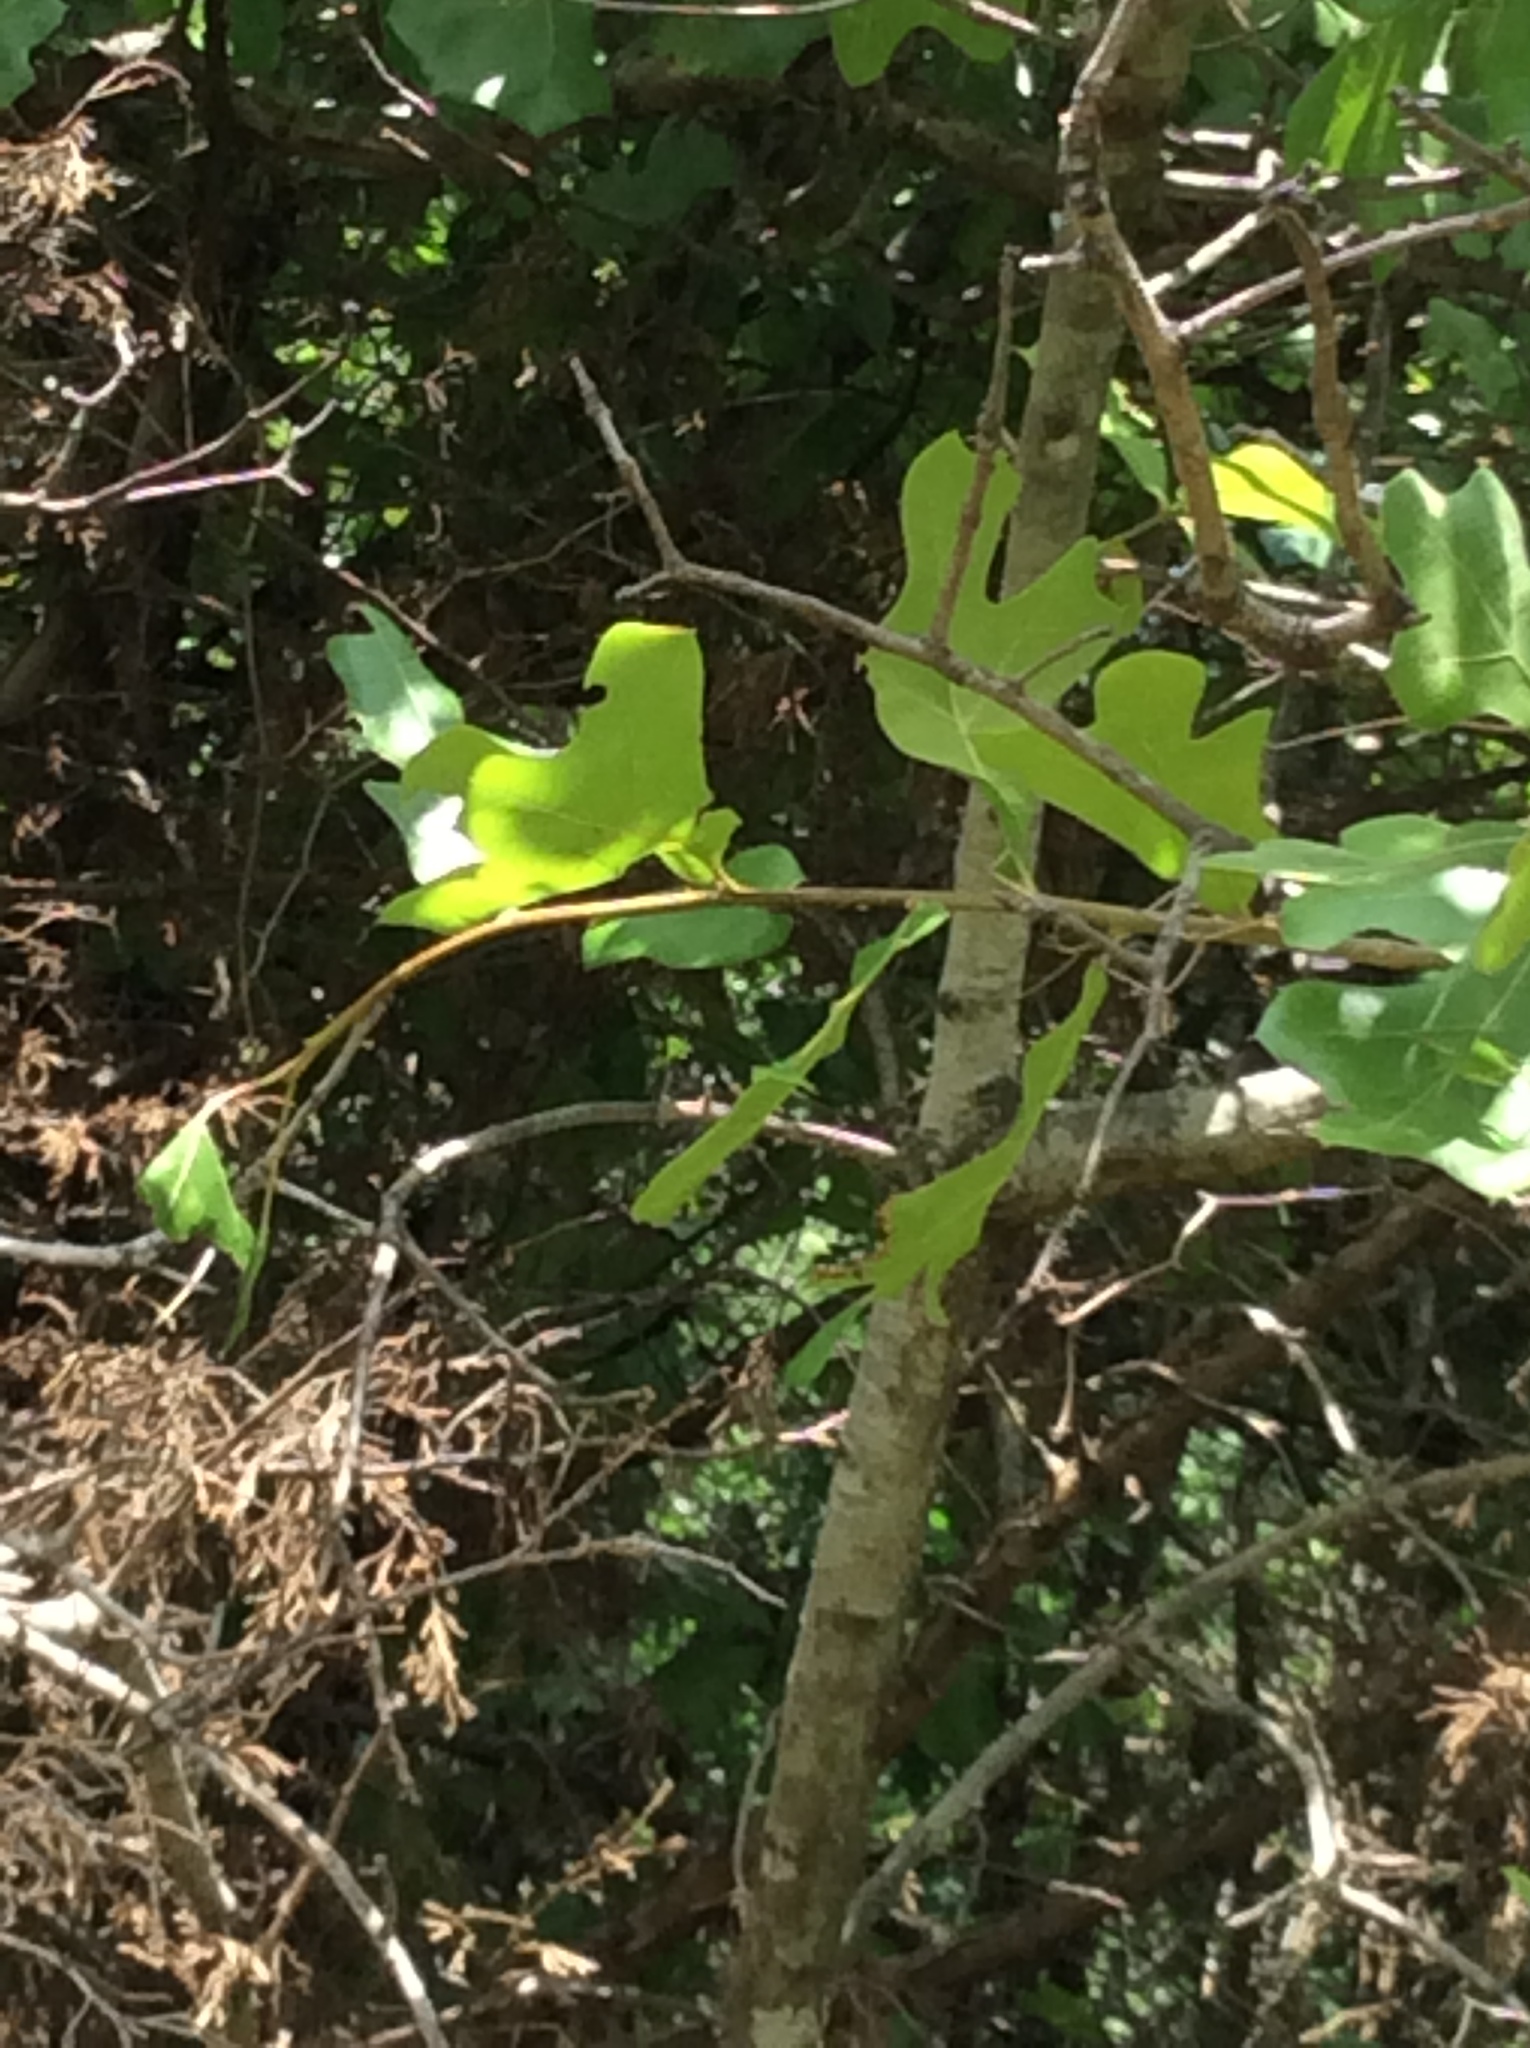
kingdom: Plantae
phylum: Tracheophyta
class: Magnoliopsida
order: Fagales
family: Fagaceae
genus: Quercus
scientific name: Quercus stellata
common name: Post oak
